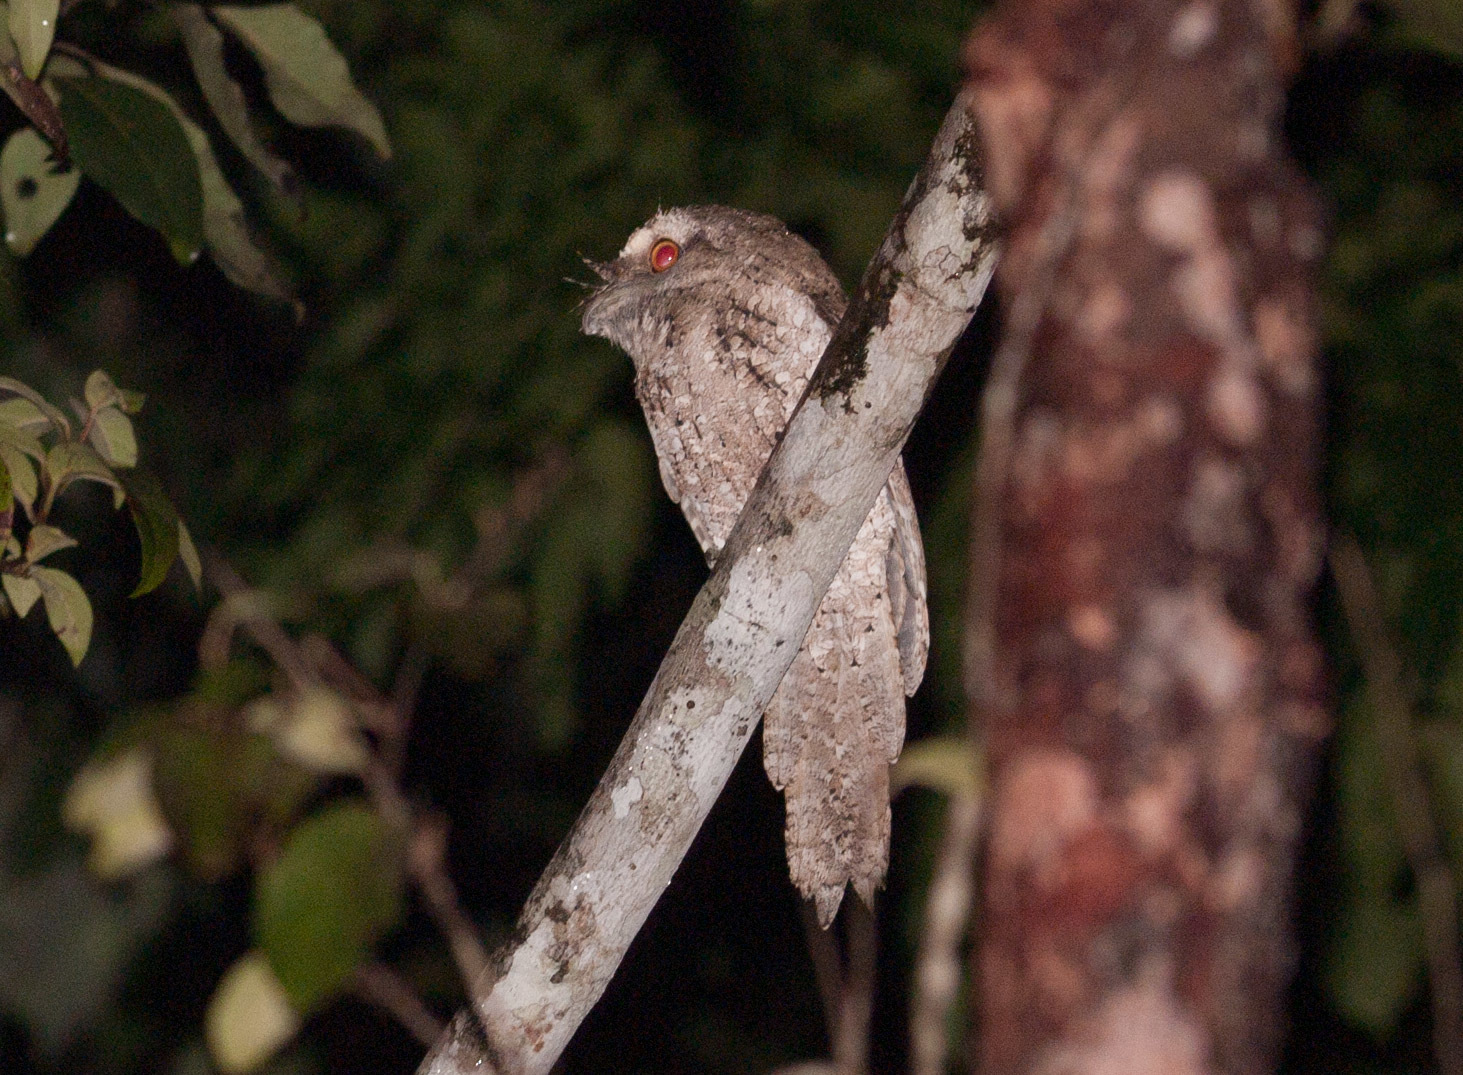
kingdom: Animalia
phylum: Chordata
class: Aves
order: Caprimulgiformes
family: Podargidae
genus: Podargus
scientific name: Podargus ocellatus
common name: Marbled frogmouth
